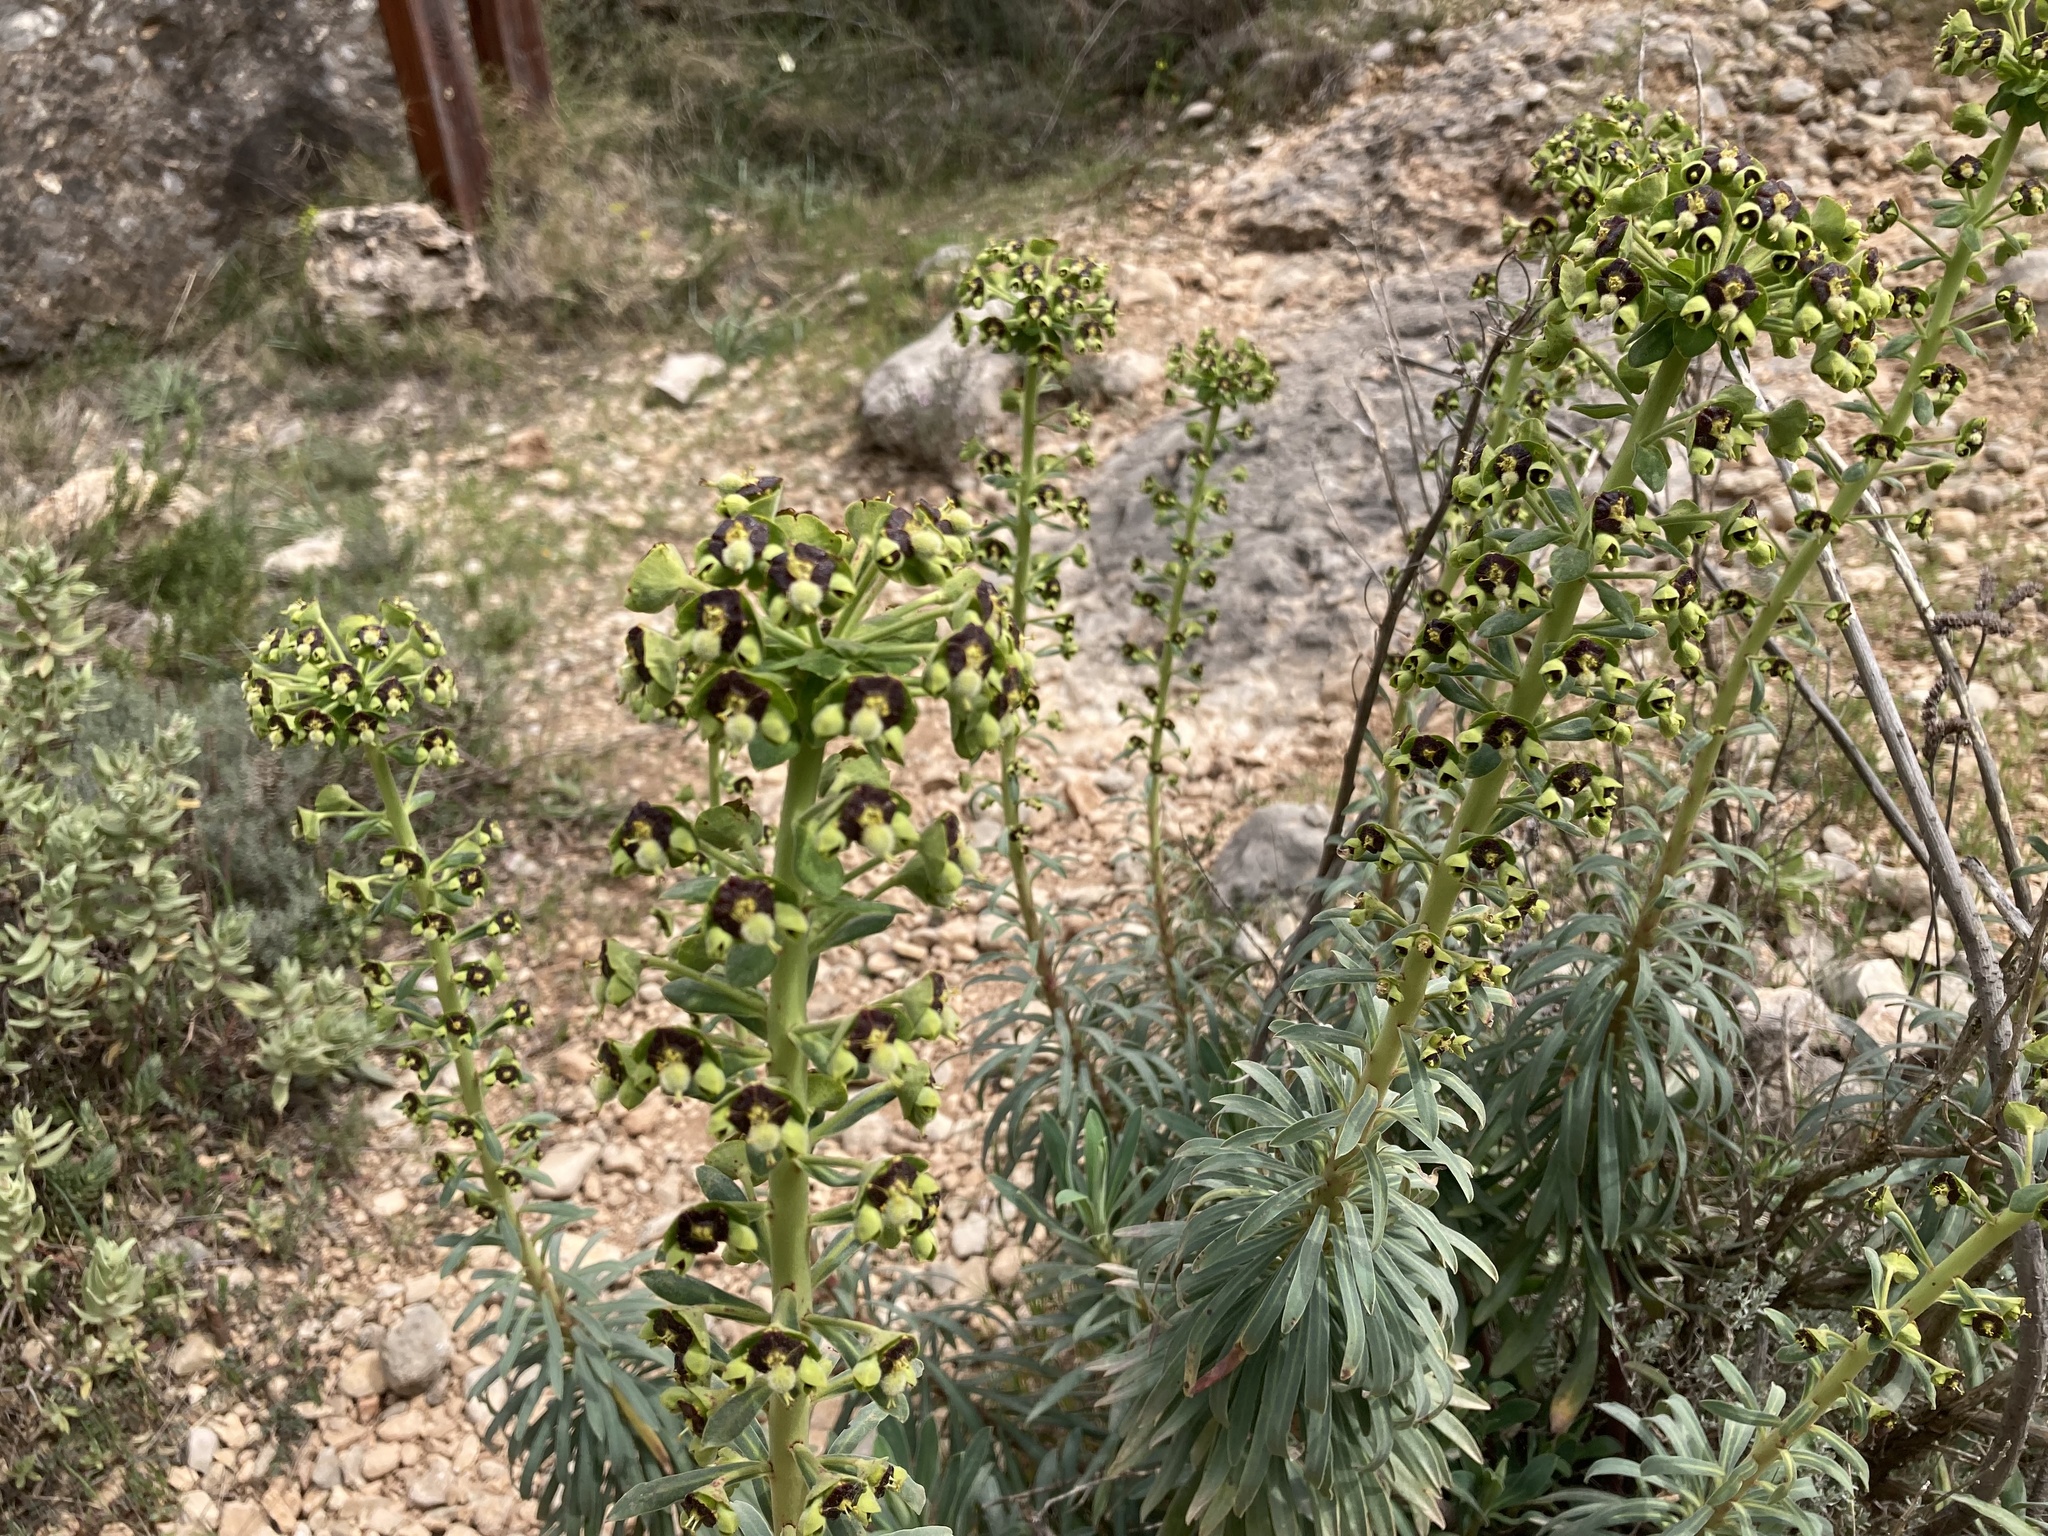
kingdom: Plantae
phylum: Tracheophyta
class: Magnoliopsida
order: Malpighiales
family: Euphorbiaceae
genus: Euphorbia
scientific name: Euphorbia characias
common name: Mediterranean spurge
